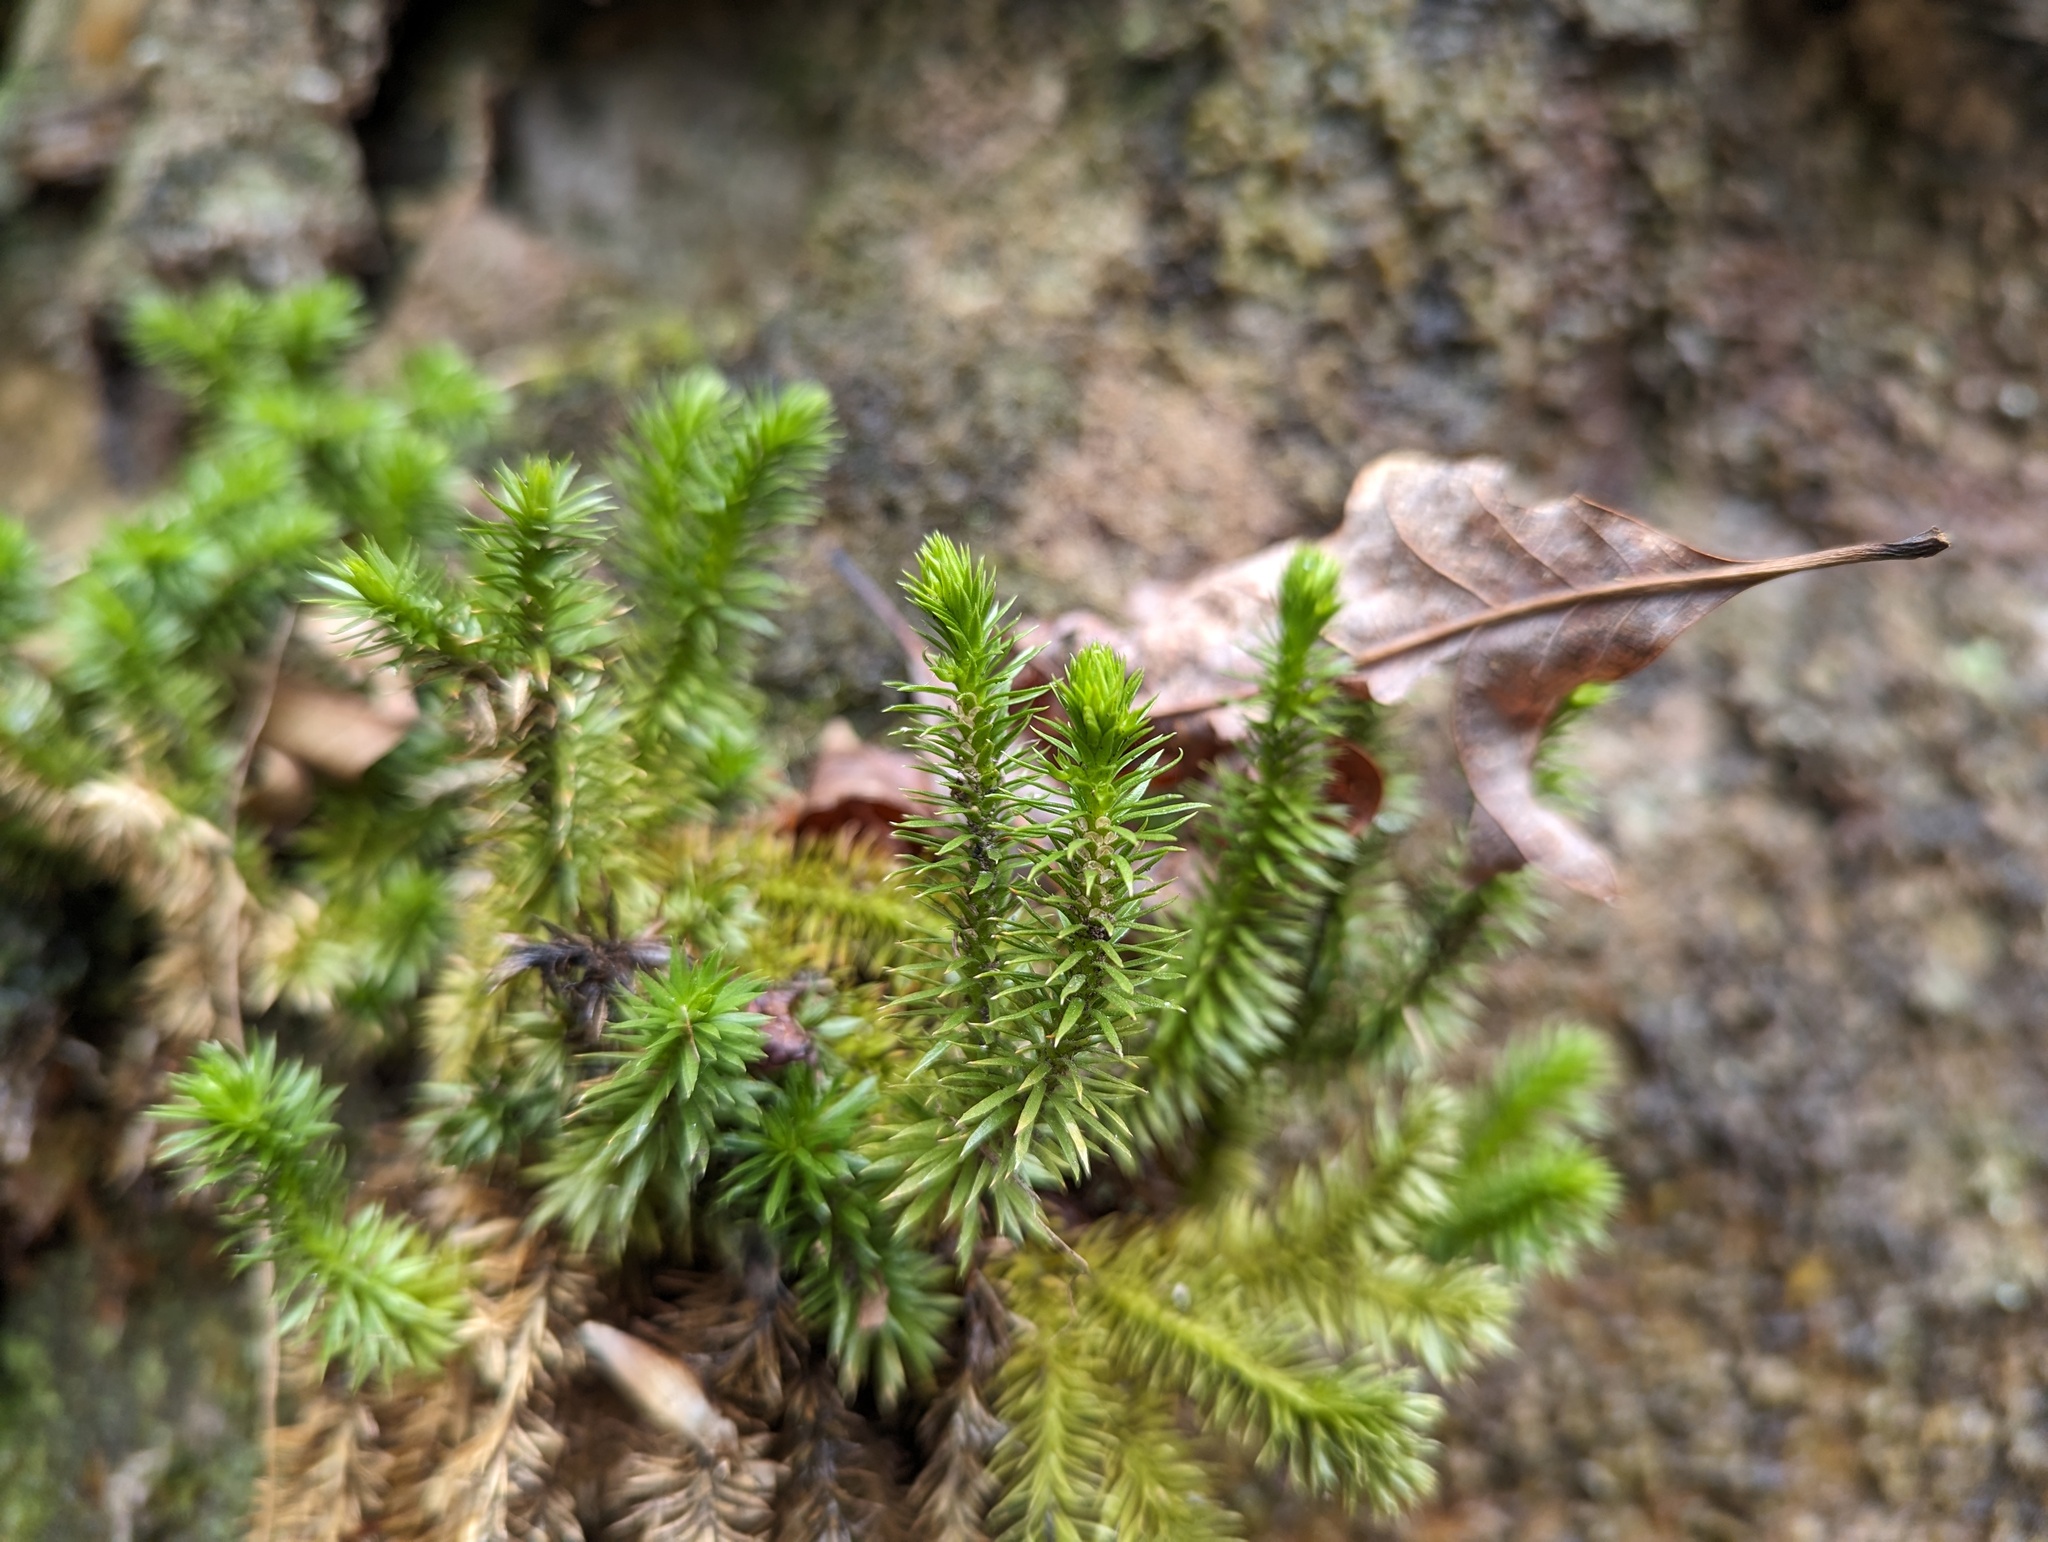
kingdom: Plantae
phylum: Tracheophyta
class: Lycopodiopsida
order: Lycopodiales
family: Lycopodiaceae
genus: Huperzia
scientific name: Huperzia porophila
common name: Rock clubmoss
